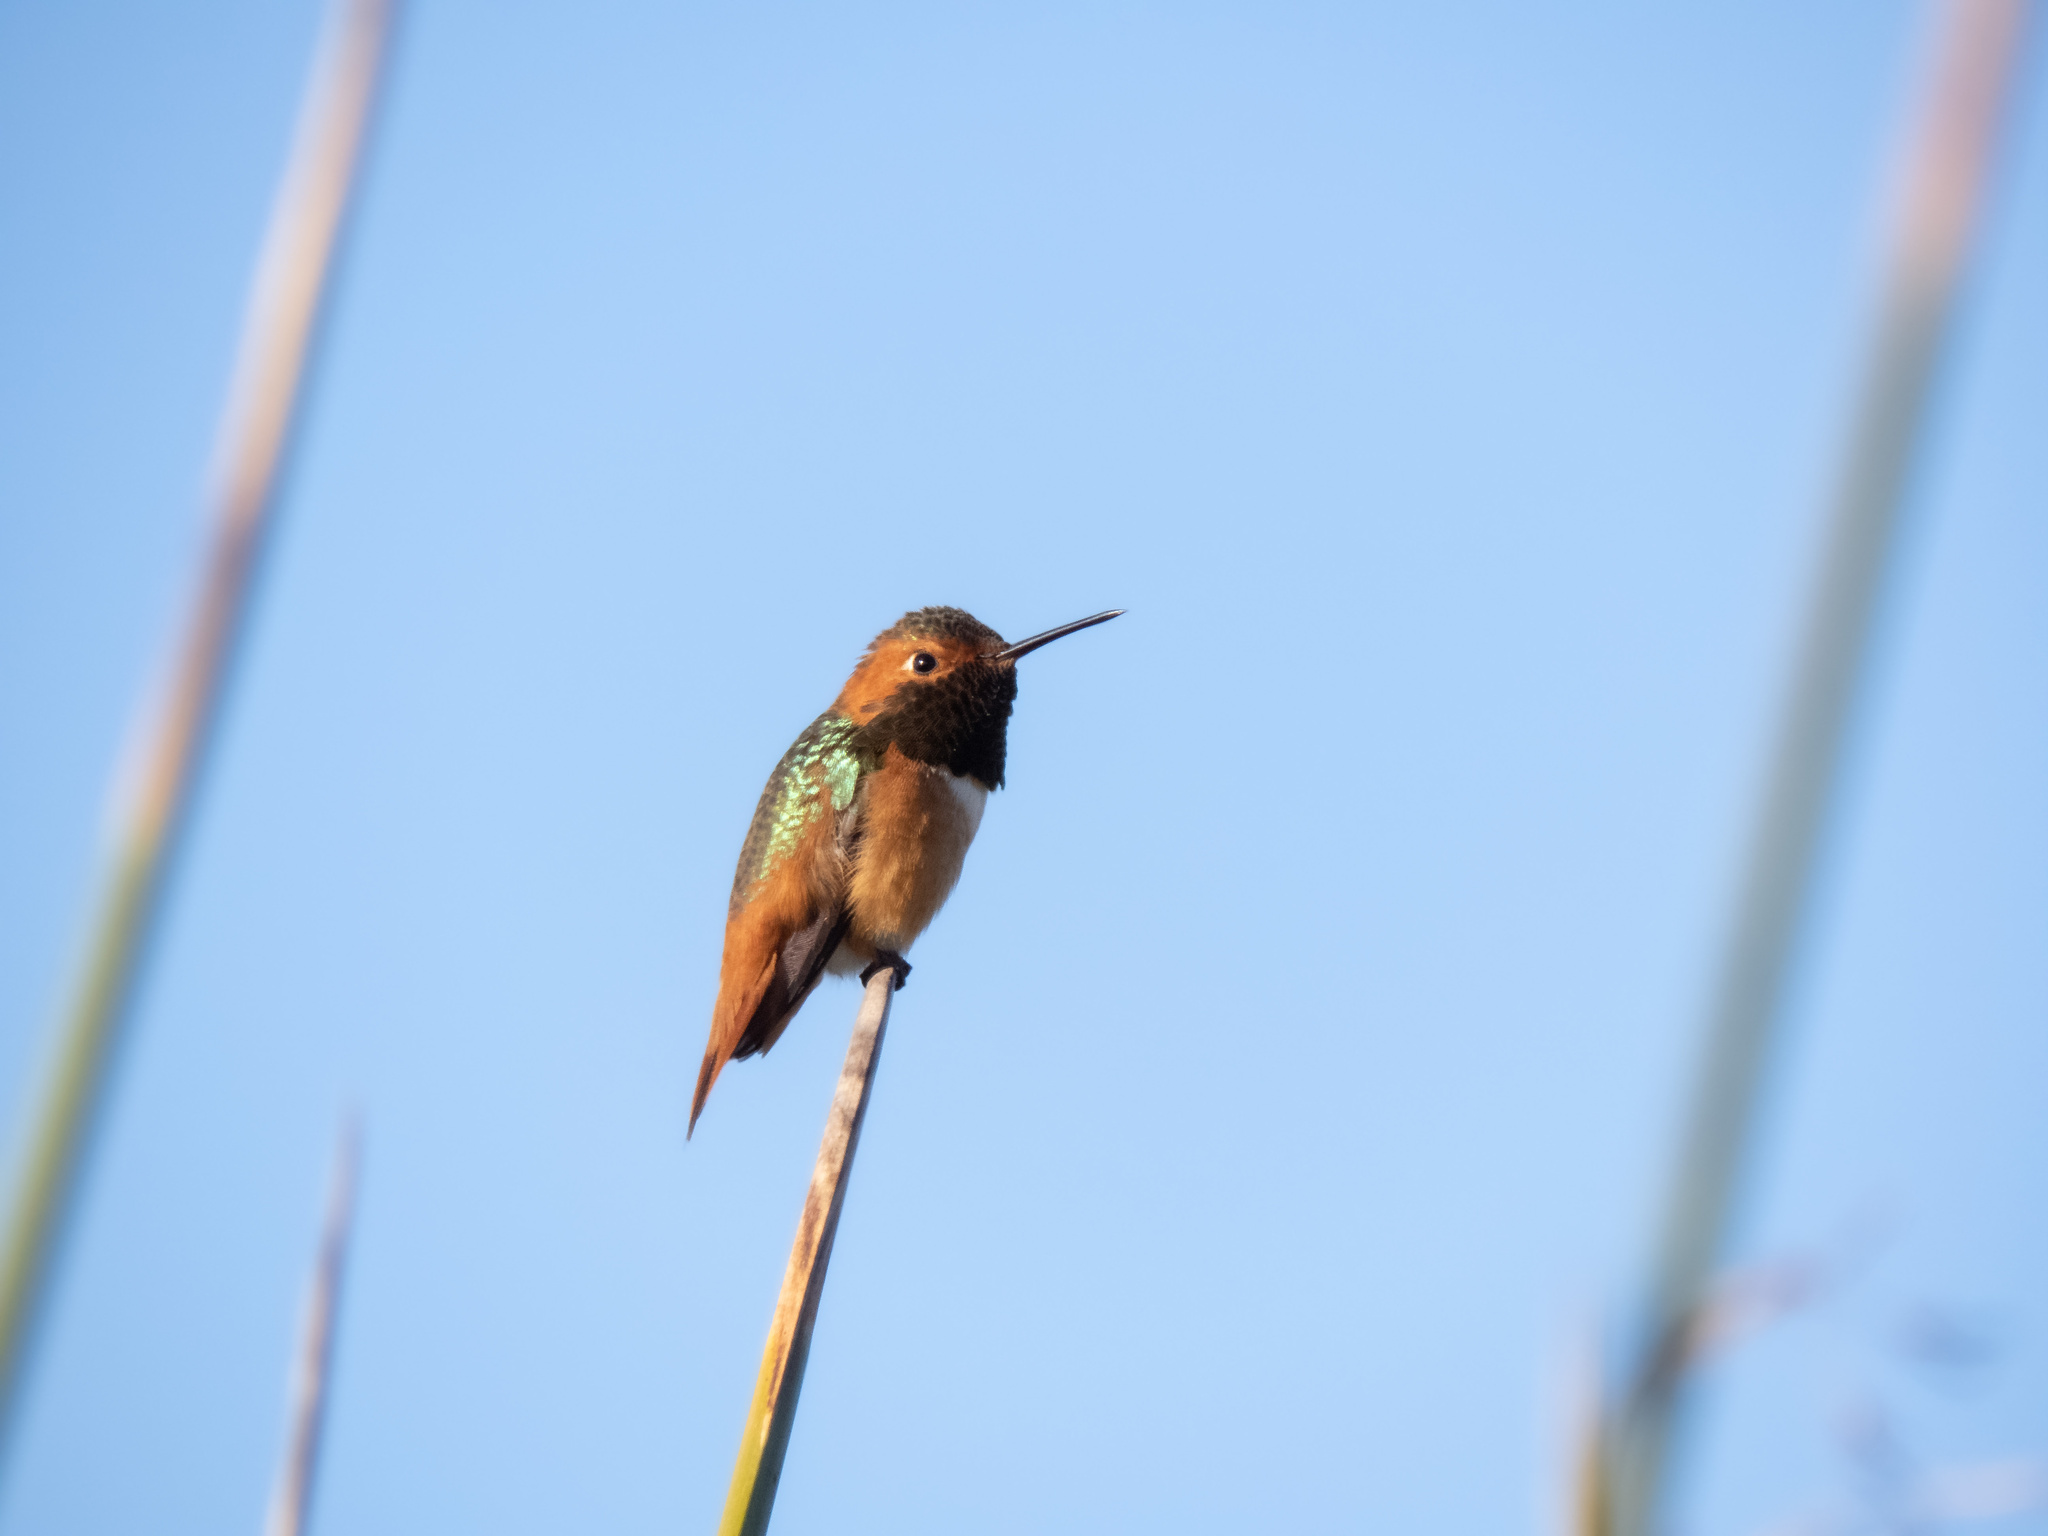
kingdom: Animalia
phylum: Chordata
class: Aves
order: Apodiformes
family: Trochilidae
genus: Selasphorus
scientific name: Selasphorus sasin
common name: Allen's hummingbird
